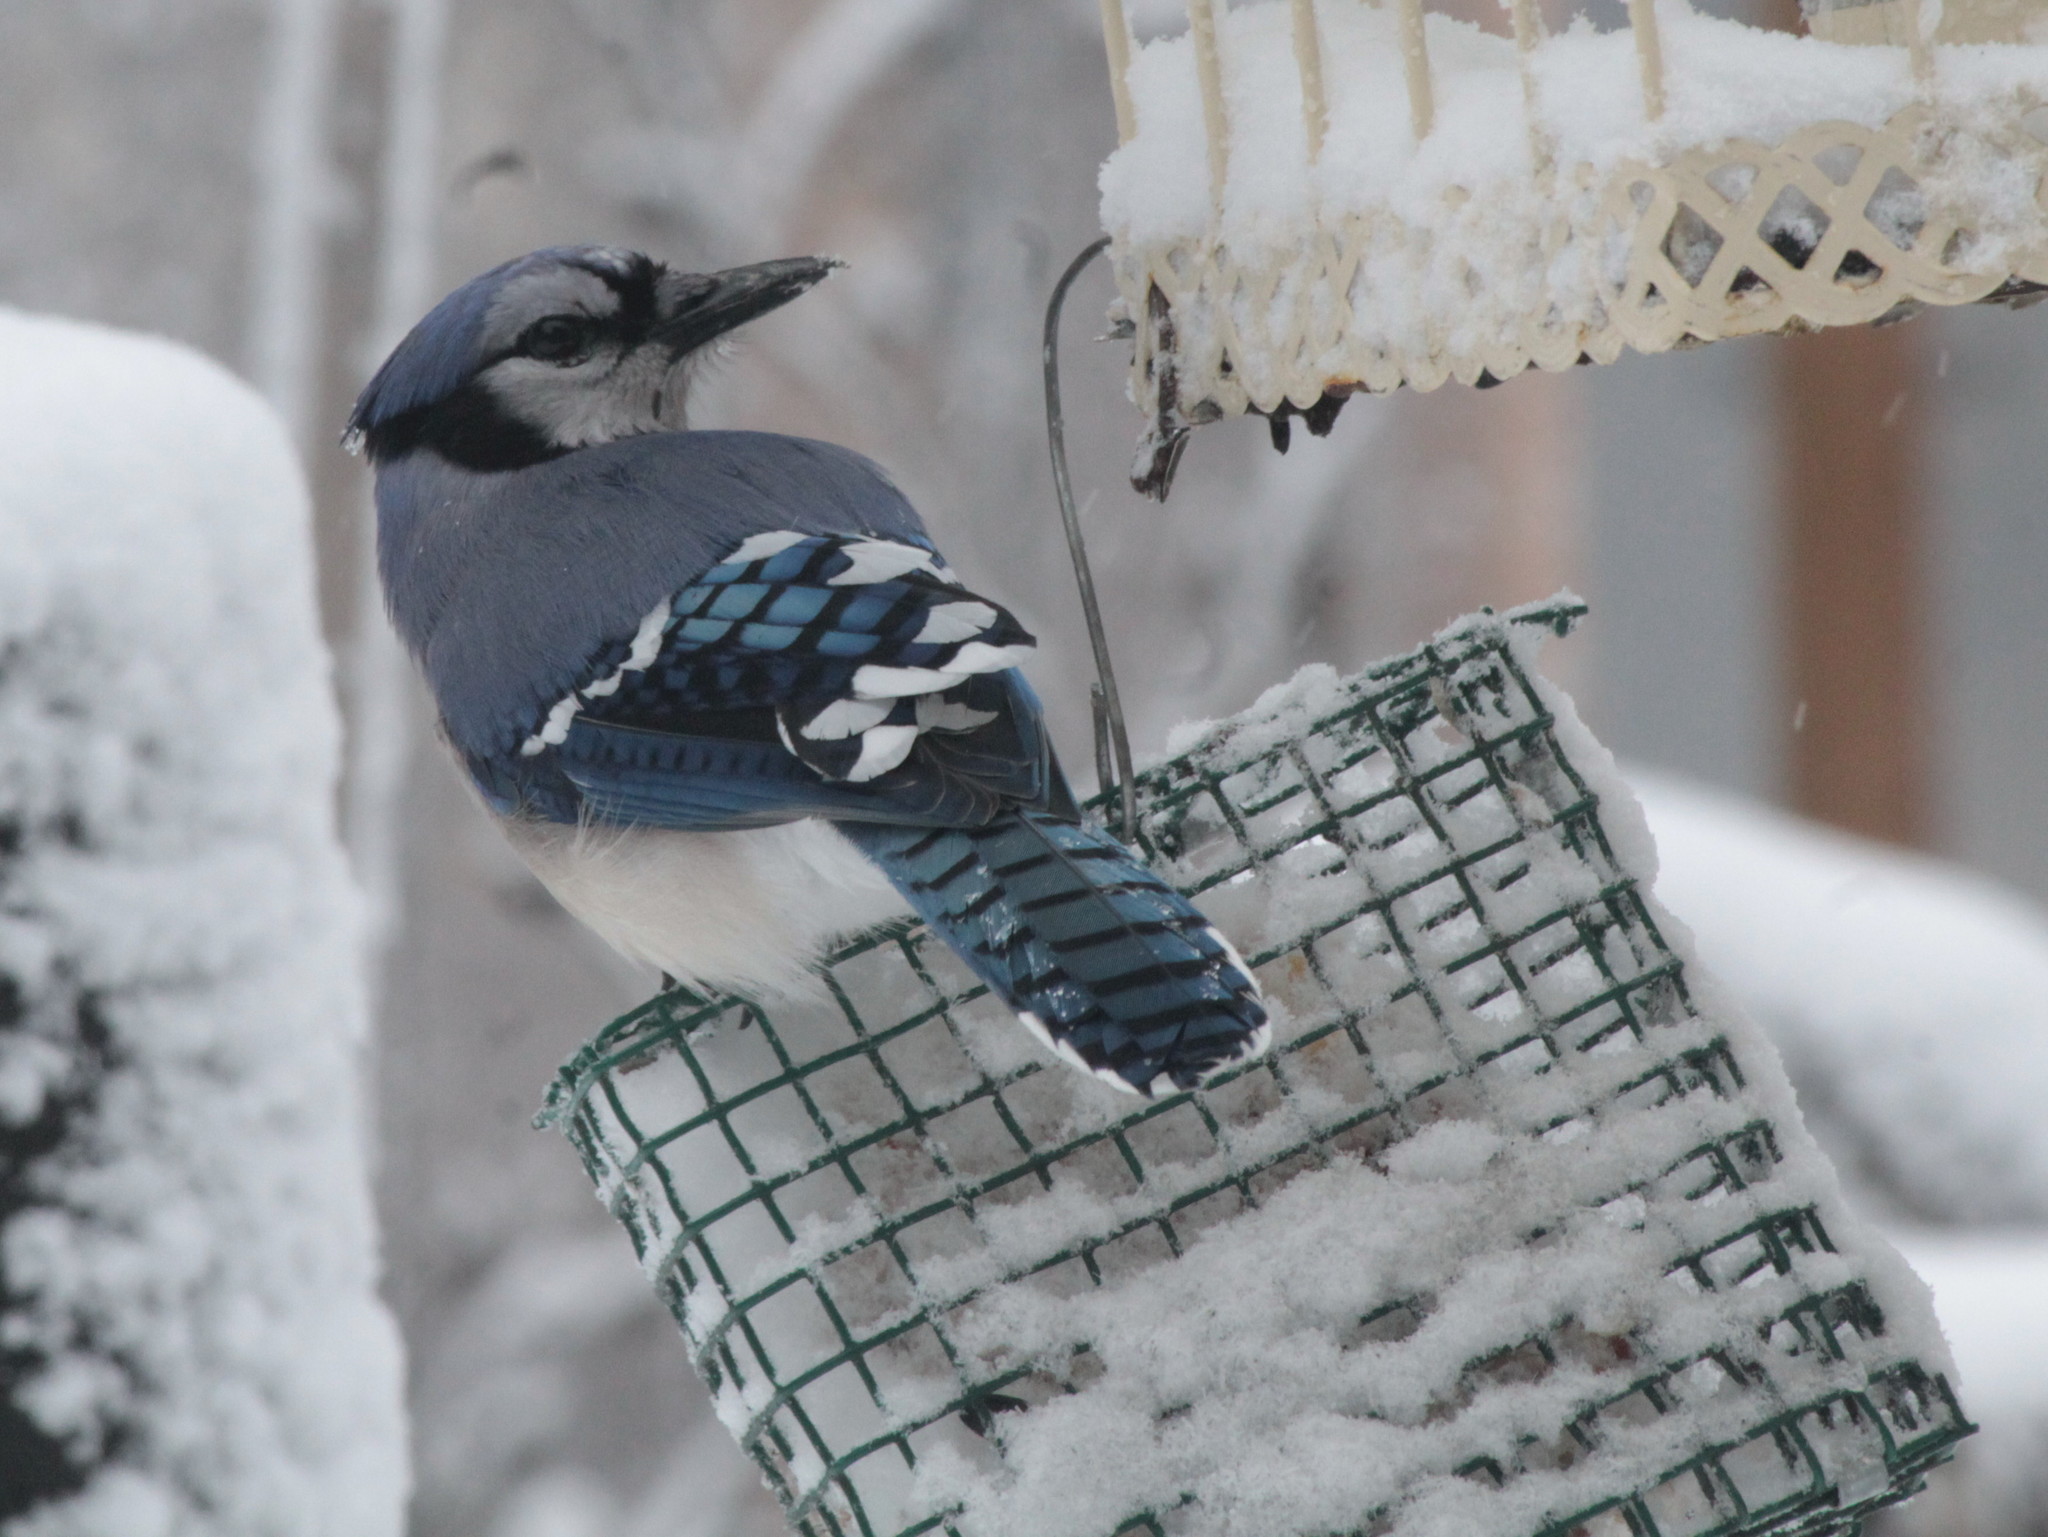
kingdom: Animalia
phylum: Chordata
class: Aves
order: Passeriformes
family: Corvidae
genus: Cyanocitta
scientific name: Cyanocitta cristata
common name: Blue jay
